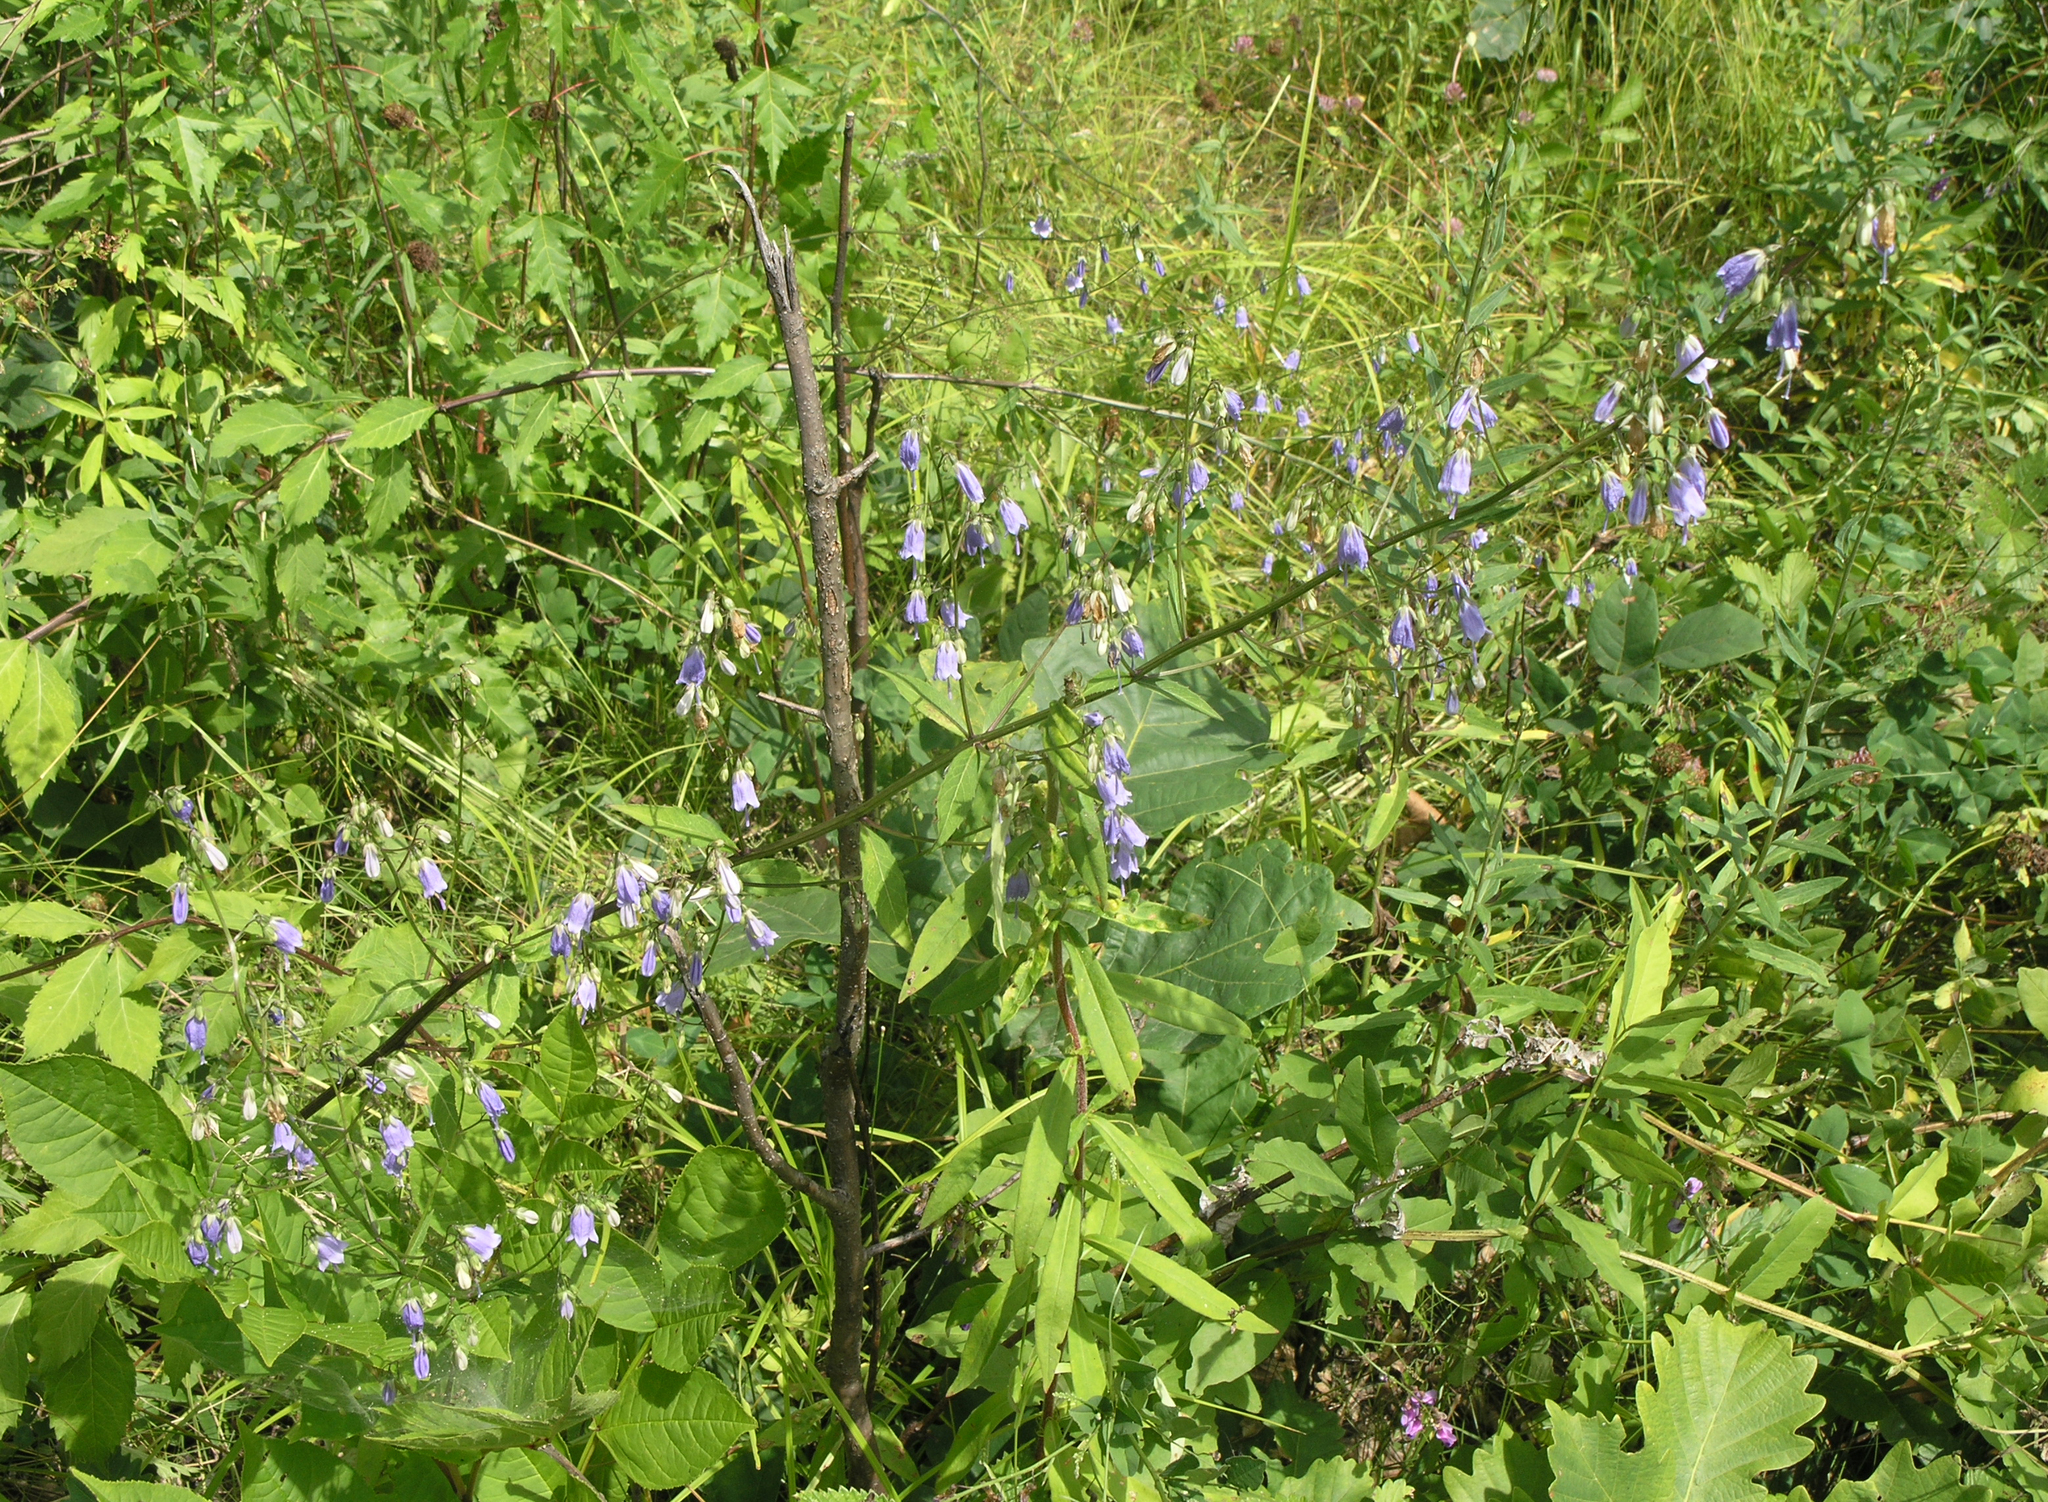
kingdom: Plantae
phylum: Tracheophyta
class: Magnoliopsida
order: Asterales
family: Campanulaceae
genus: Adenophora
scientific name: Adenophora pereskiifolia
